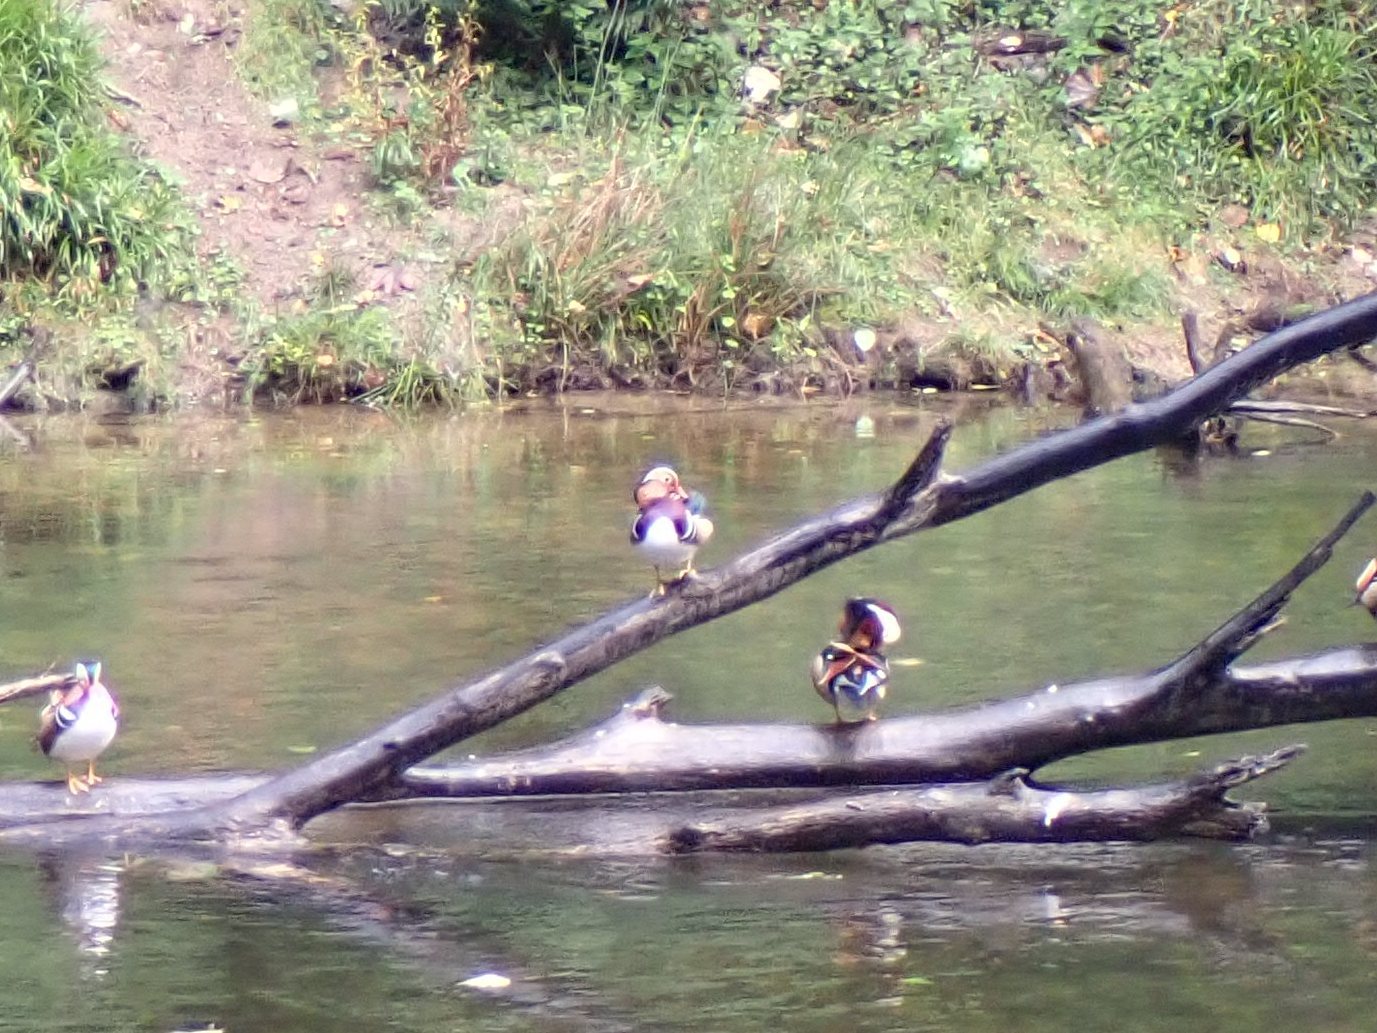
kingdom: Animalia
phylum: Chordata
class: Aves
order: Anseriformes
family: Anatidae
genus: Aix
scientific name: Aix galericulata
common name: Mandarin duck
